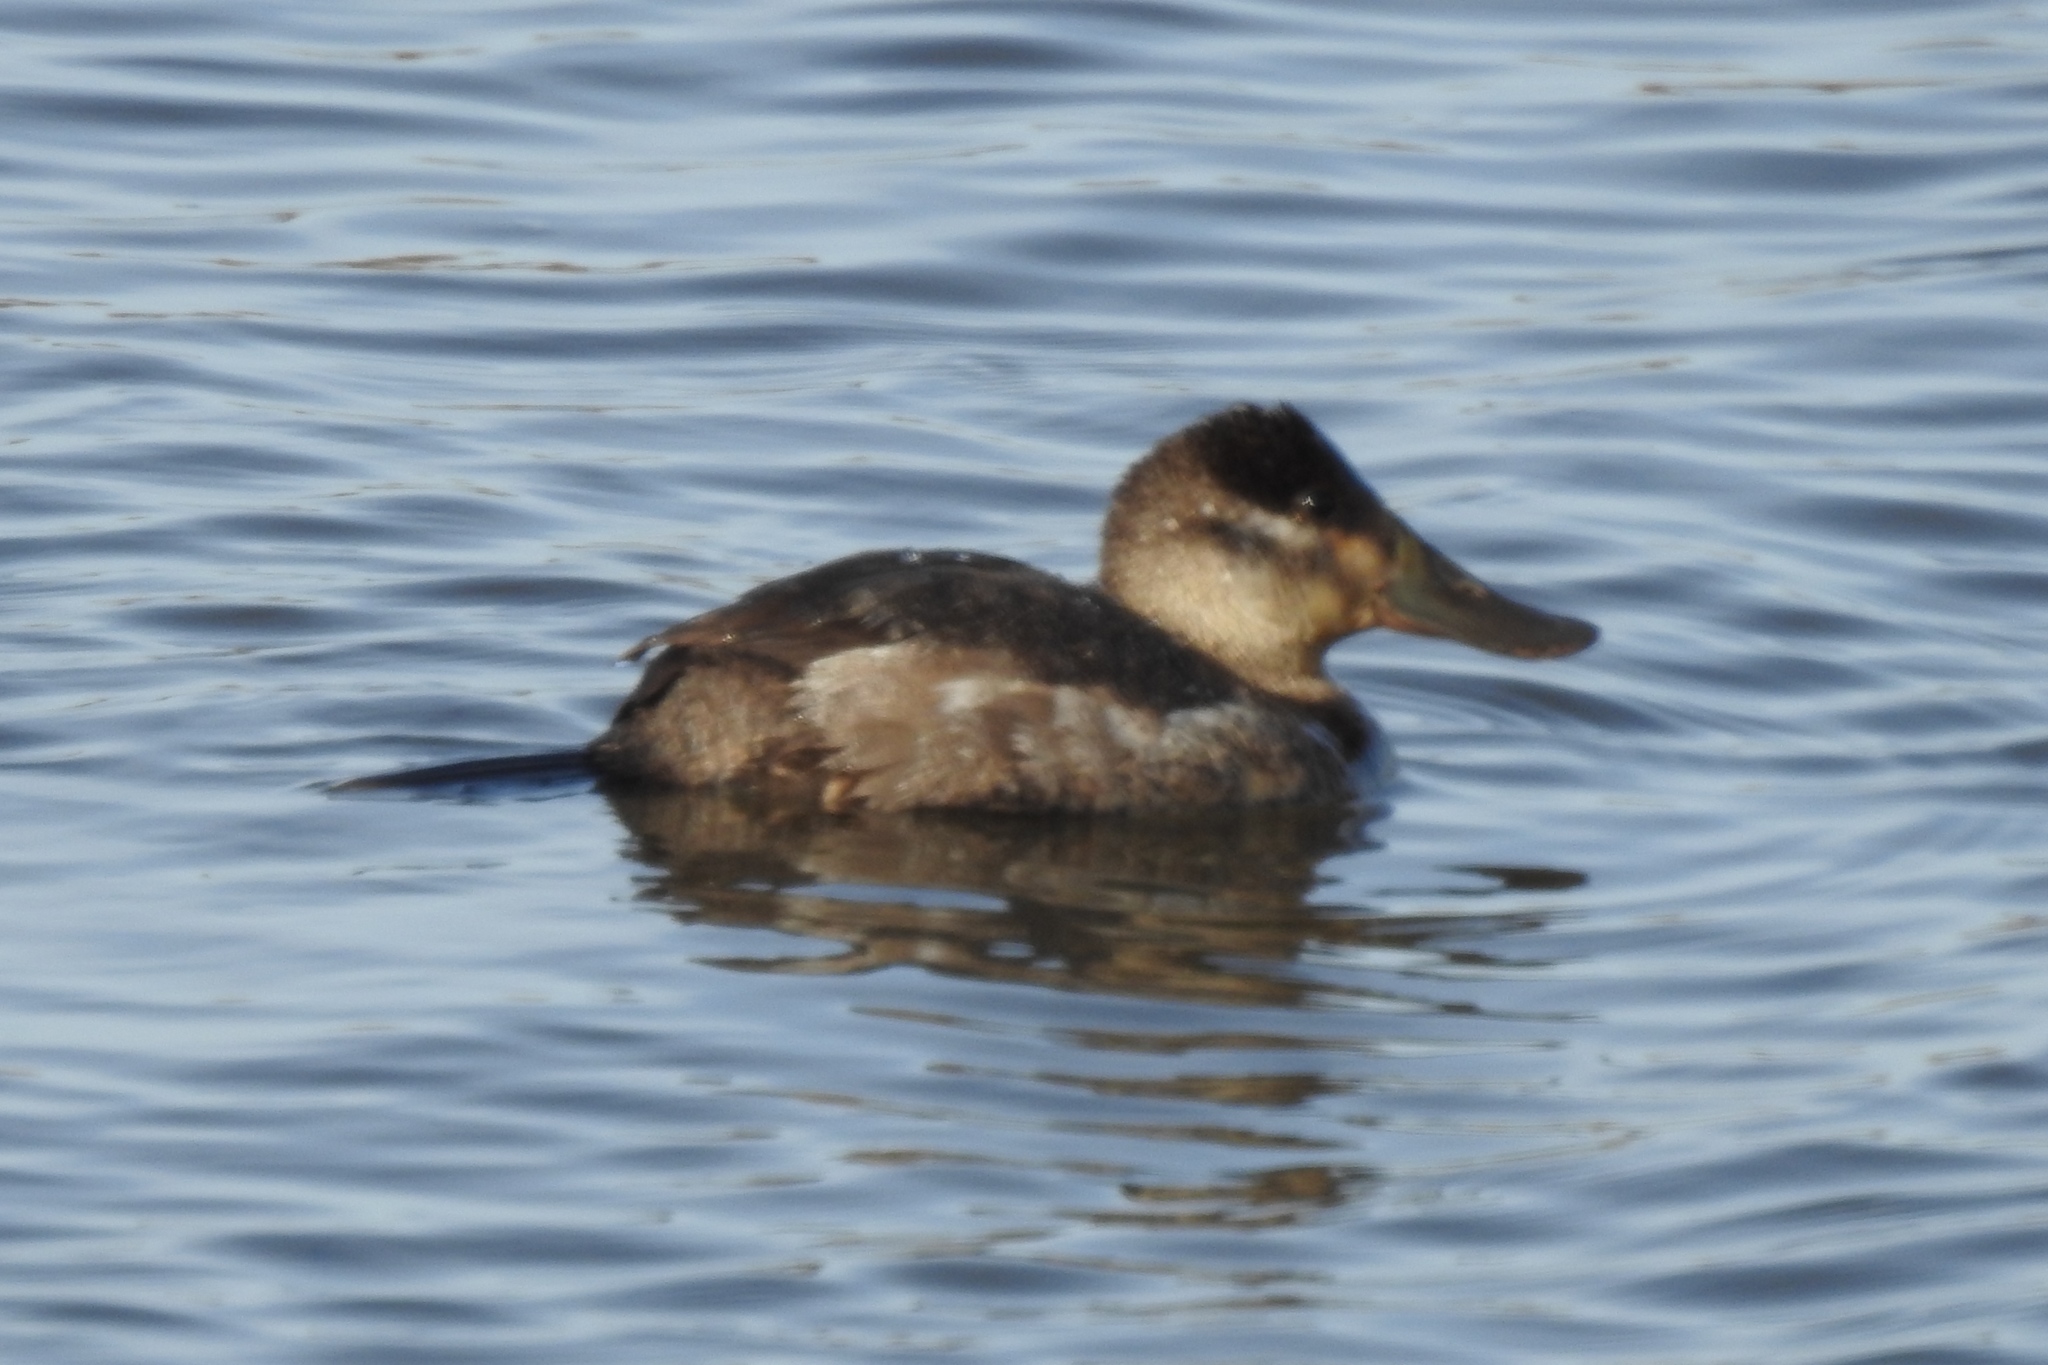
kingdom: Animalia
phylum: Chordata
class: Aves
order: Anseriformes
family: Anatidae
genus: Oxyura
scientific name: Oxyura jamaicensis
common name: Ruddy duck
